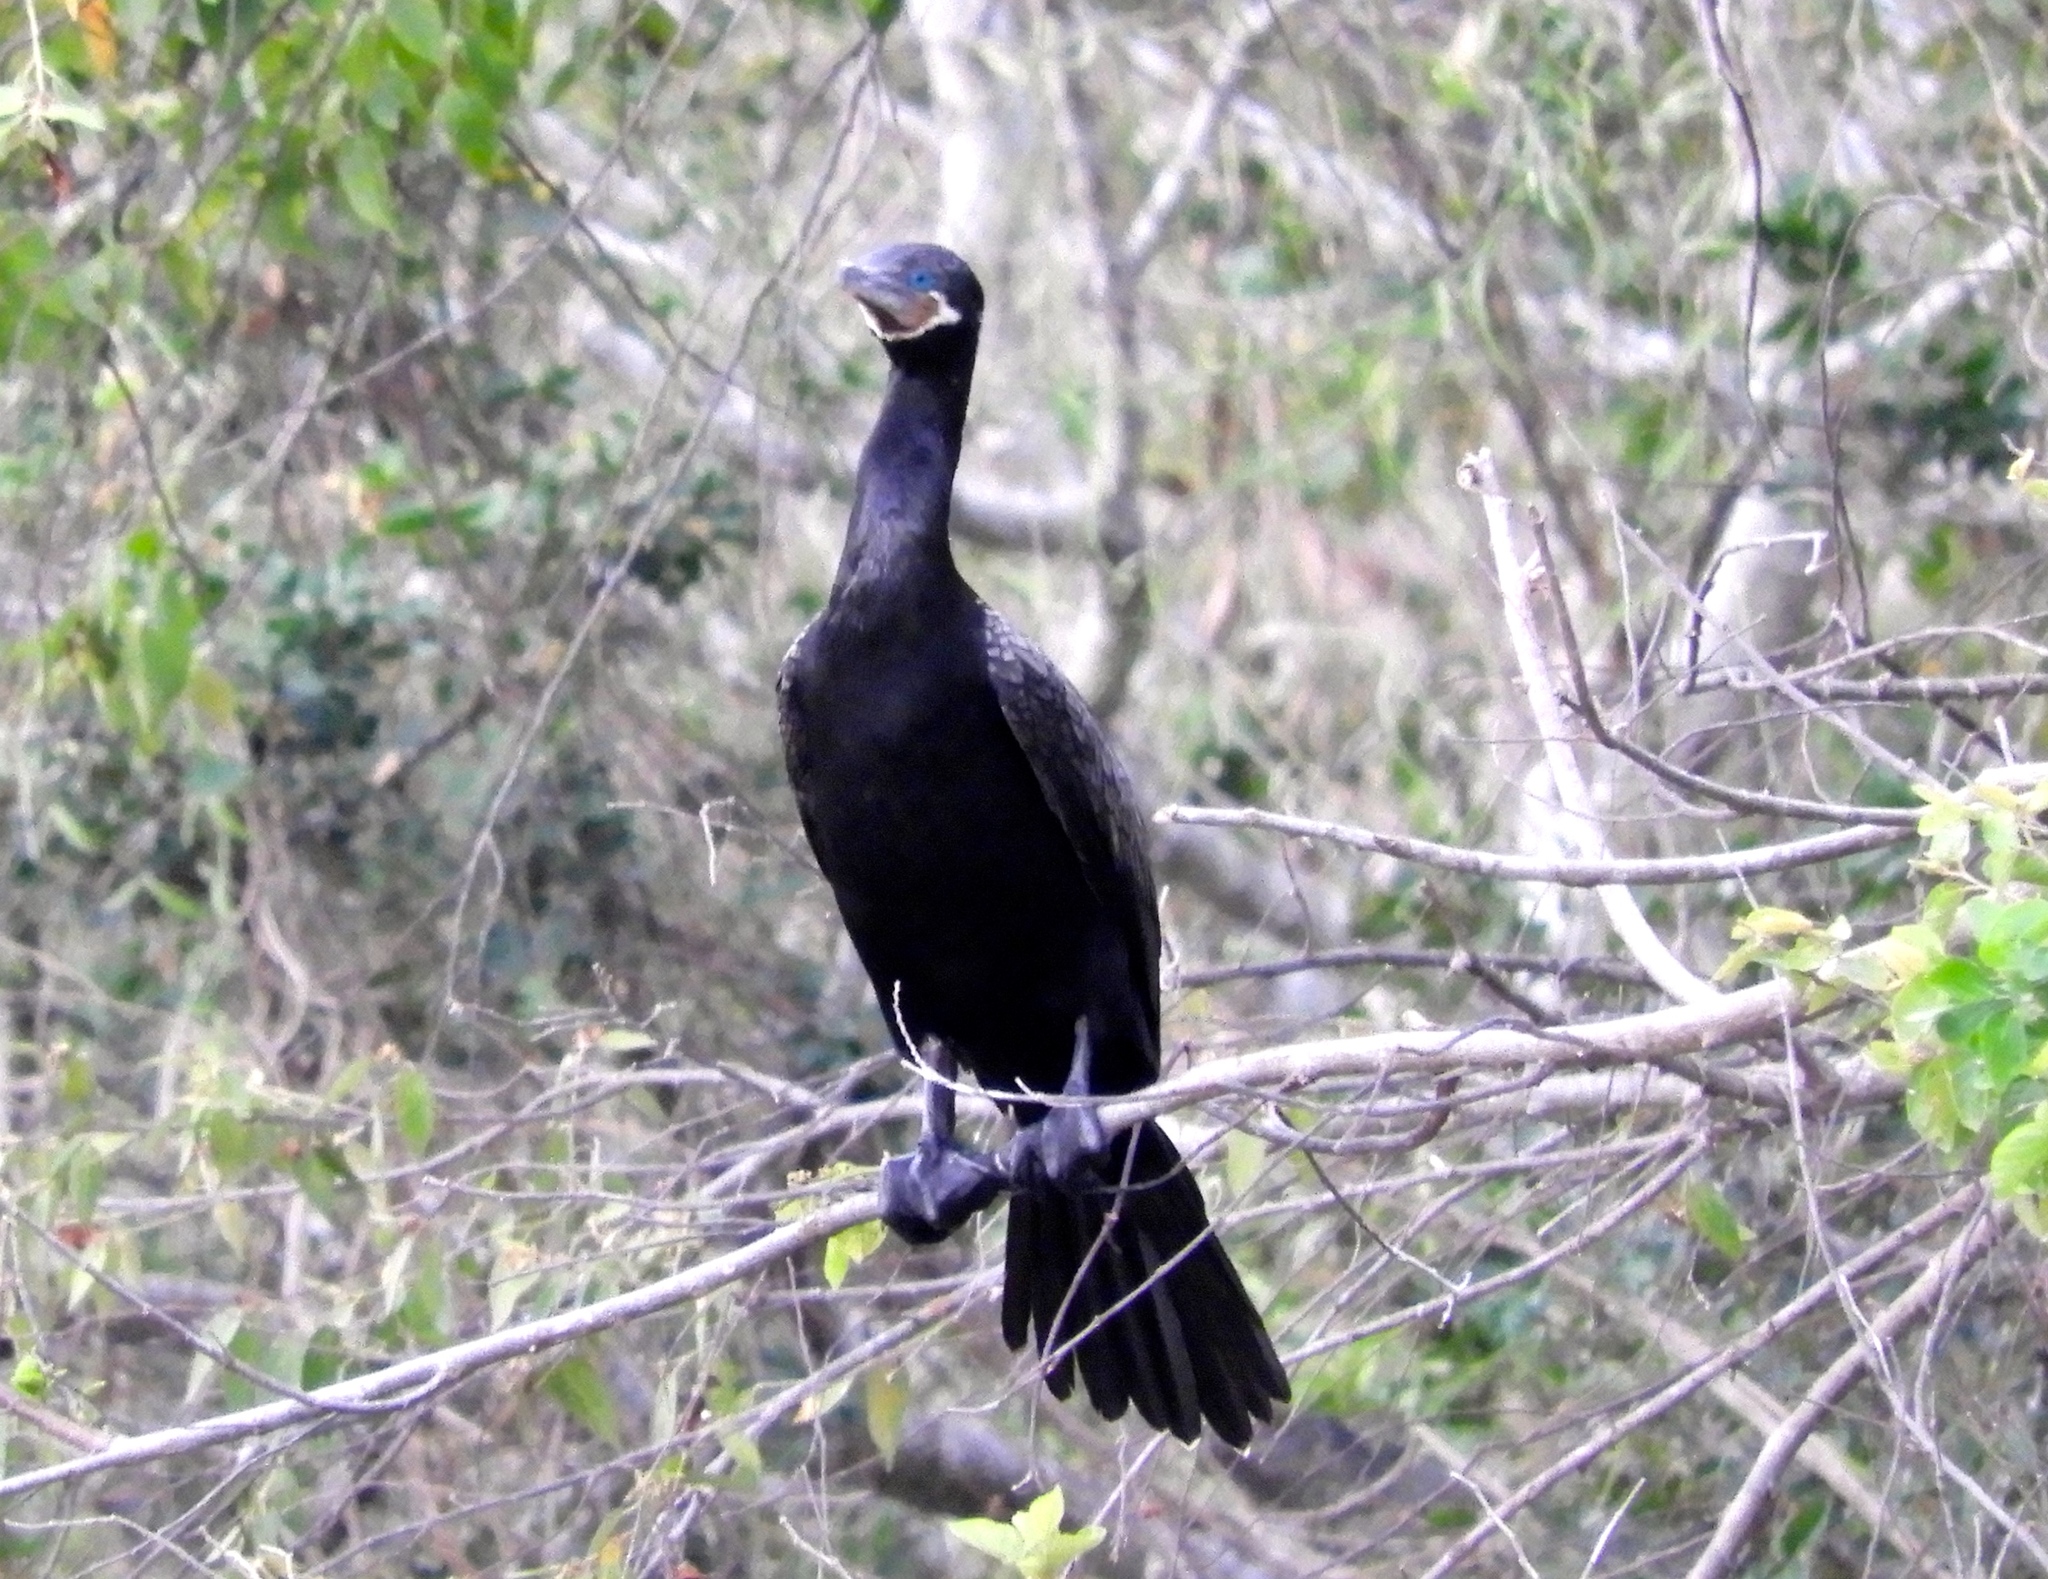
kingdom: Animalia
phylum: Chordata
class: Aves
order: Suliformes
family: Phalacrocoracidae
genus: Phalacrocorax
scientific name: Phalacrocorax brasilianus
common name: Neotropic cormorant
